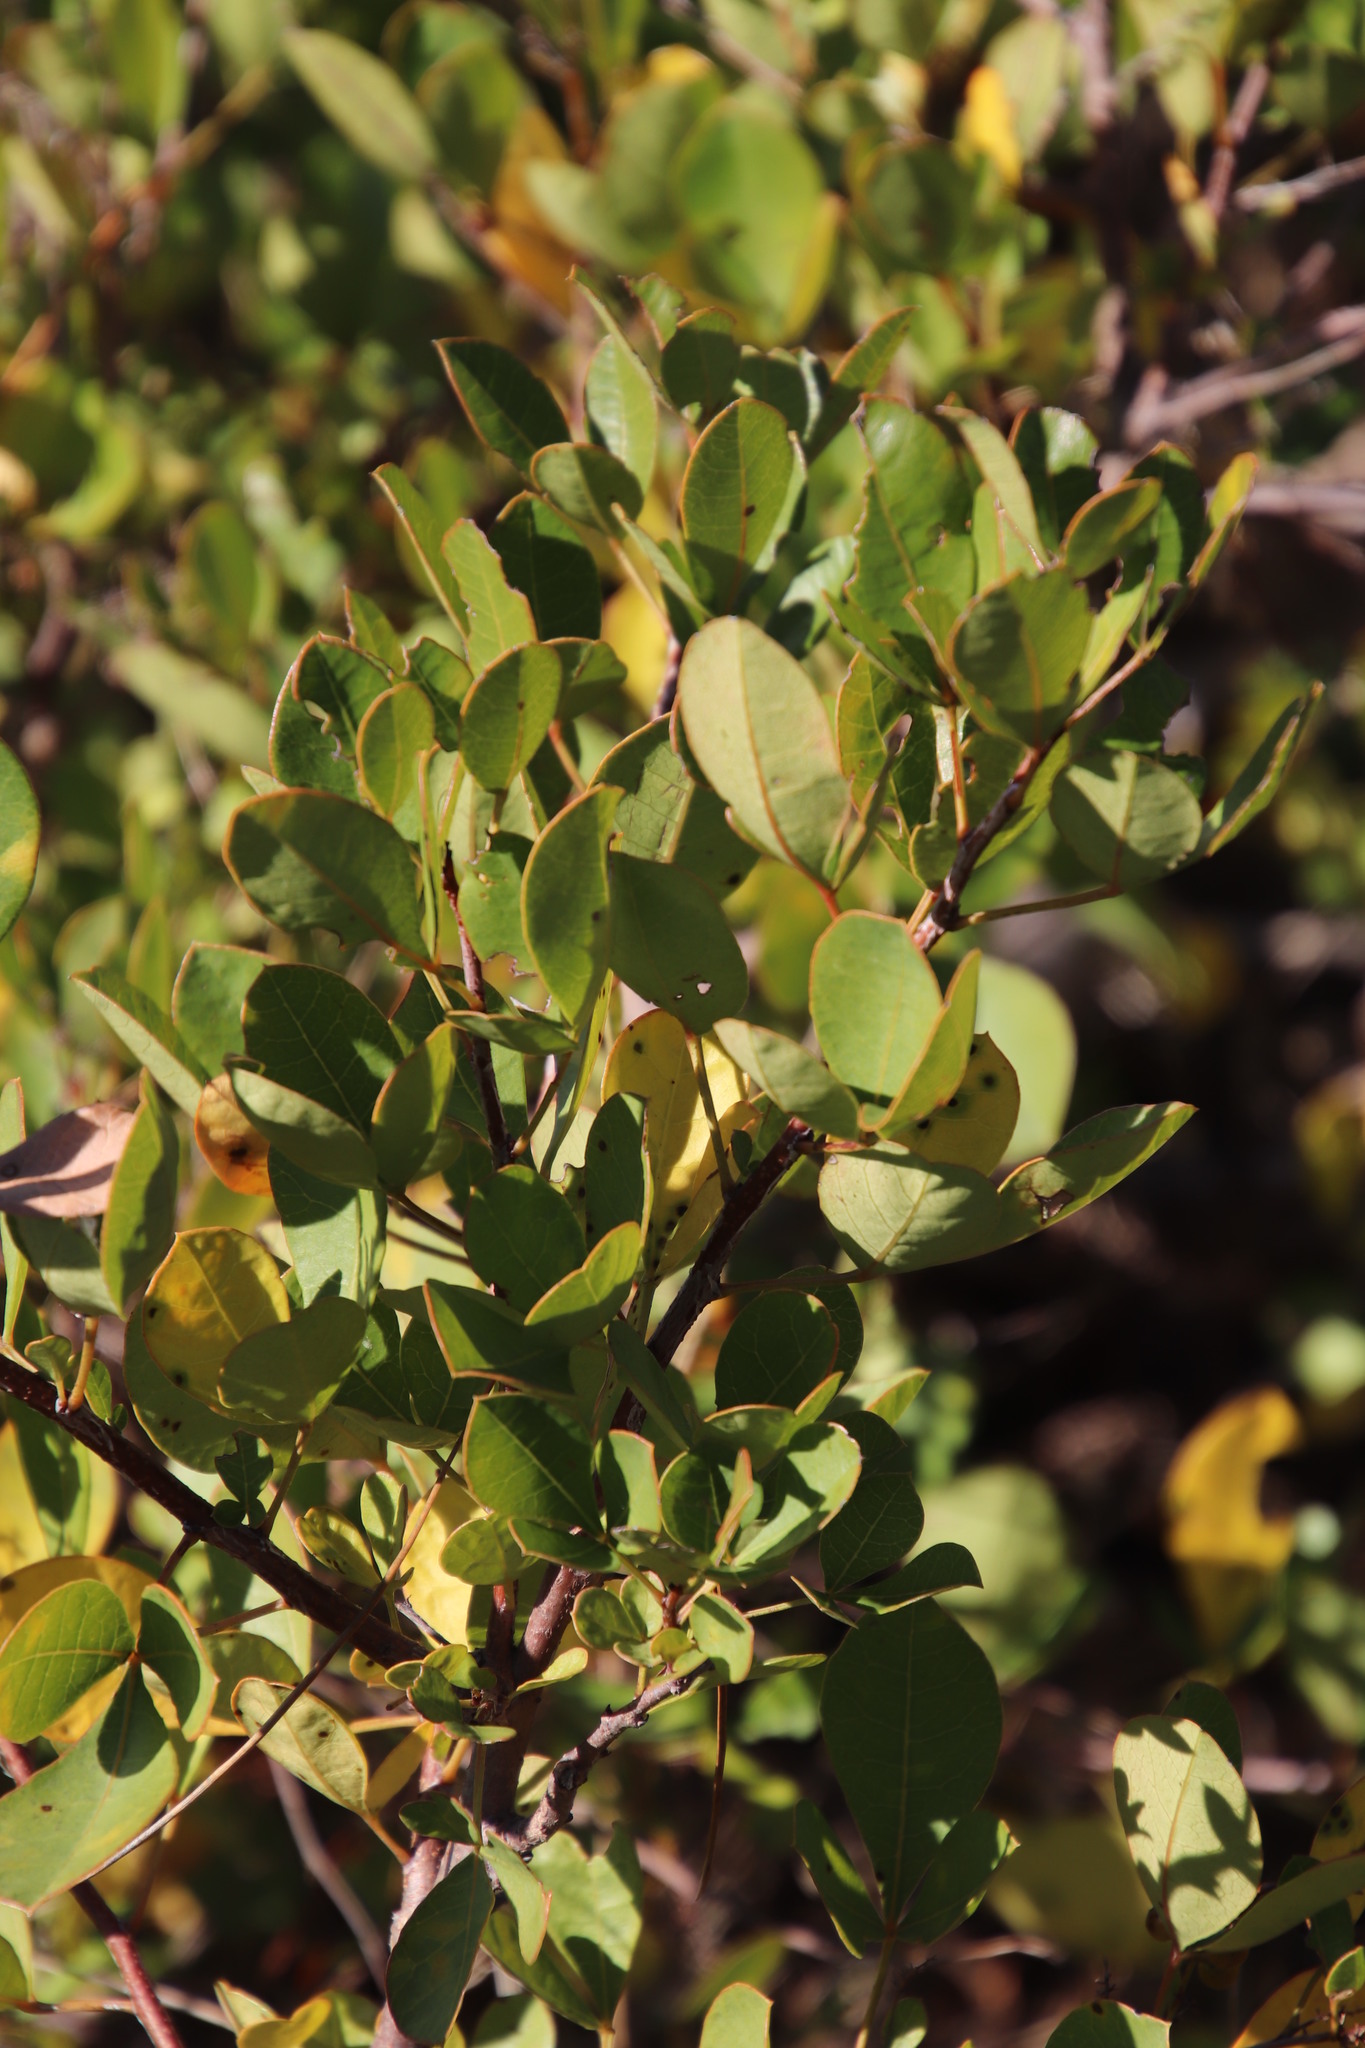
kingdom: Plantae
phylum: Tracheophyta
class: Magnoliopsida
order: Sapindales
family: Anacardiaceae
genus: Searsia
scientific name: Searsia laevigata
